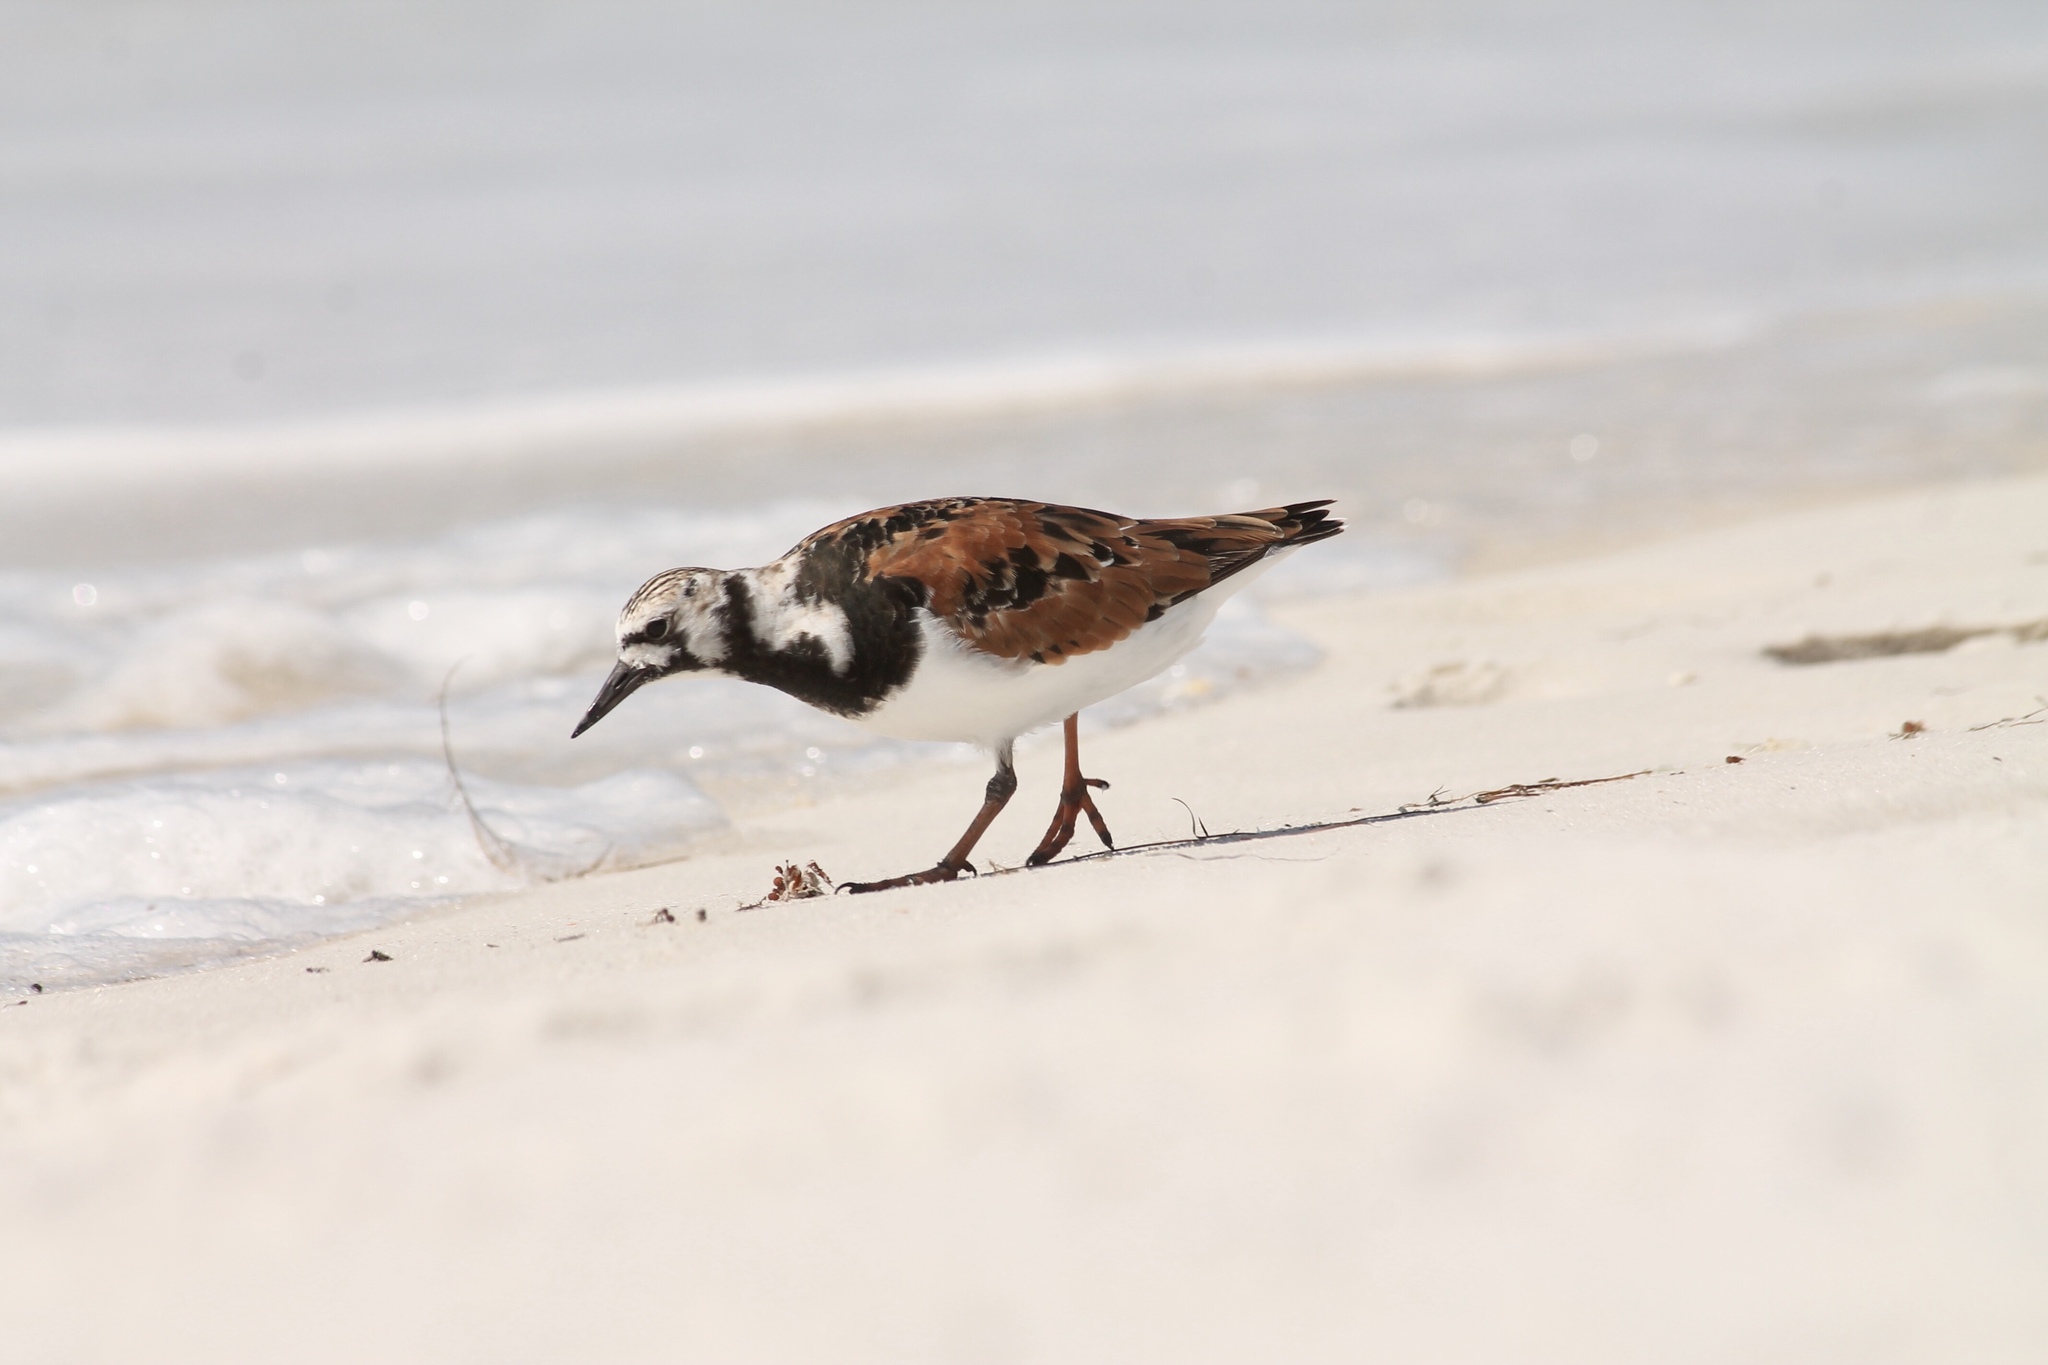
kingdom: Animalia
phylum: Chordata
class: Aves
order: Charadriiformes
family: Scolopacidae
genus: Arenaria
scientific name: Arenaria interpres
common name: Ruddy turnstone
